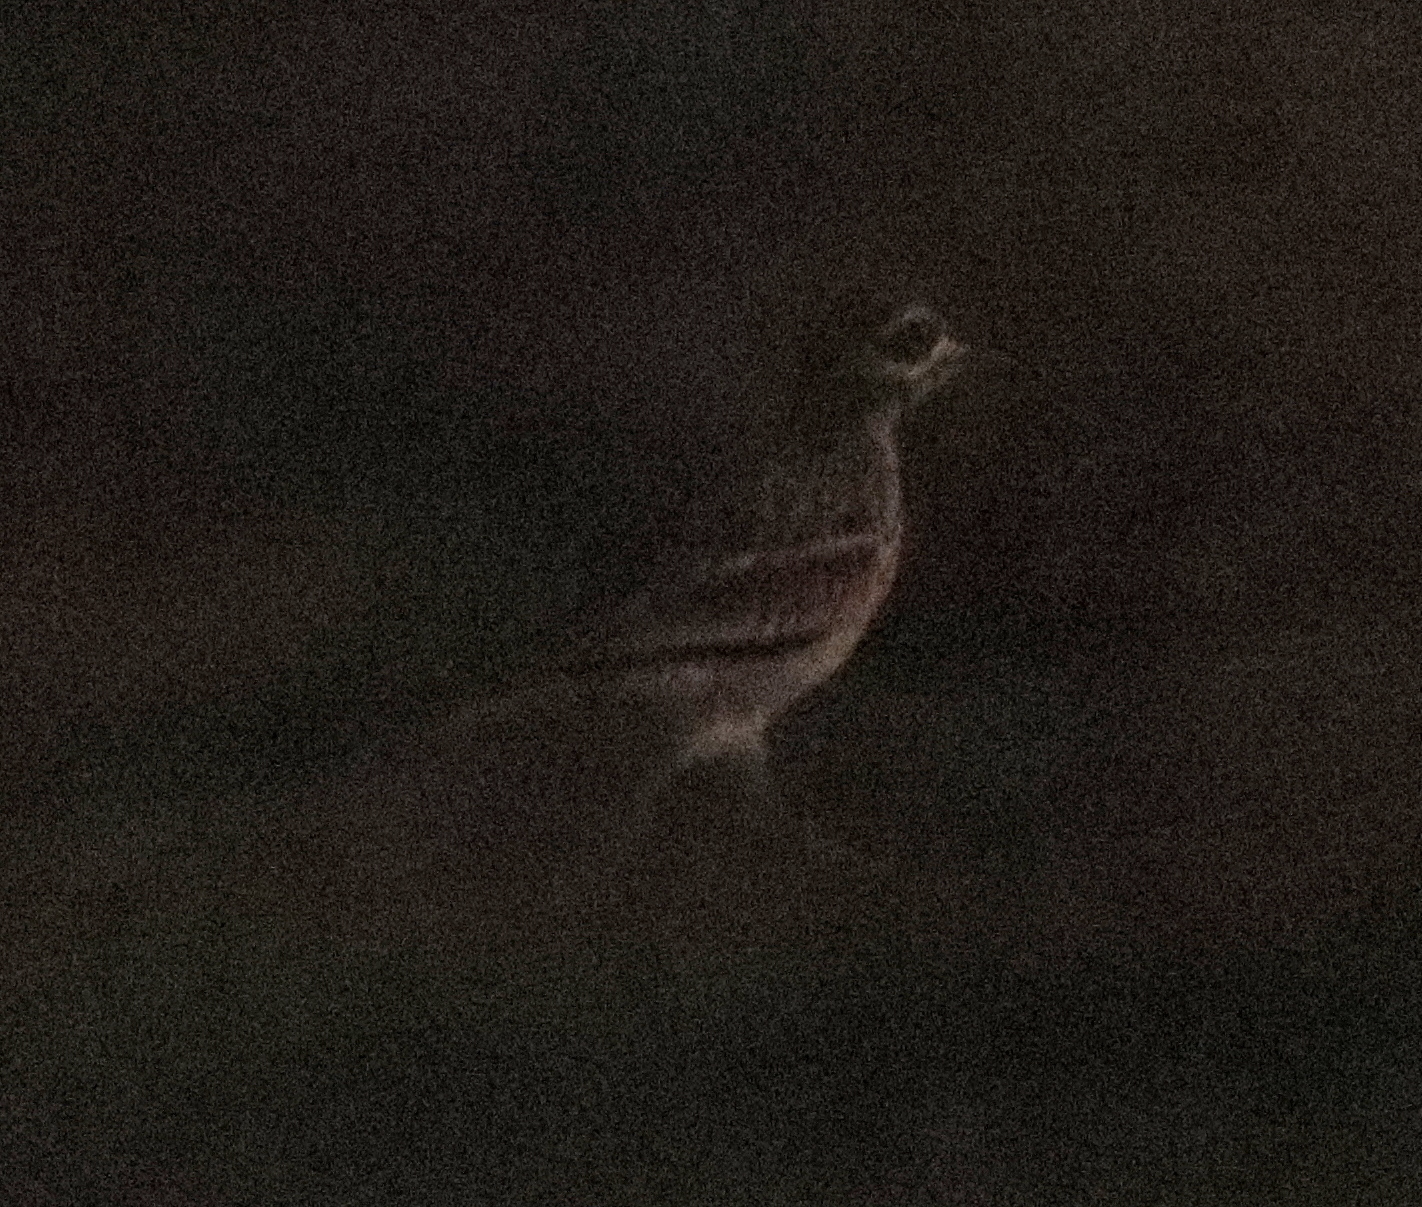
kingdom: Animalia
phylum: Chordata
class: Aves
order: Charadriiformes
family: Burhinidae
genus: Burhinus
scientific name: Burhinus oedicnemus
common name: Eurasian stone-curlew
